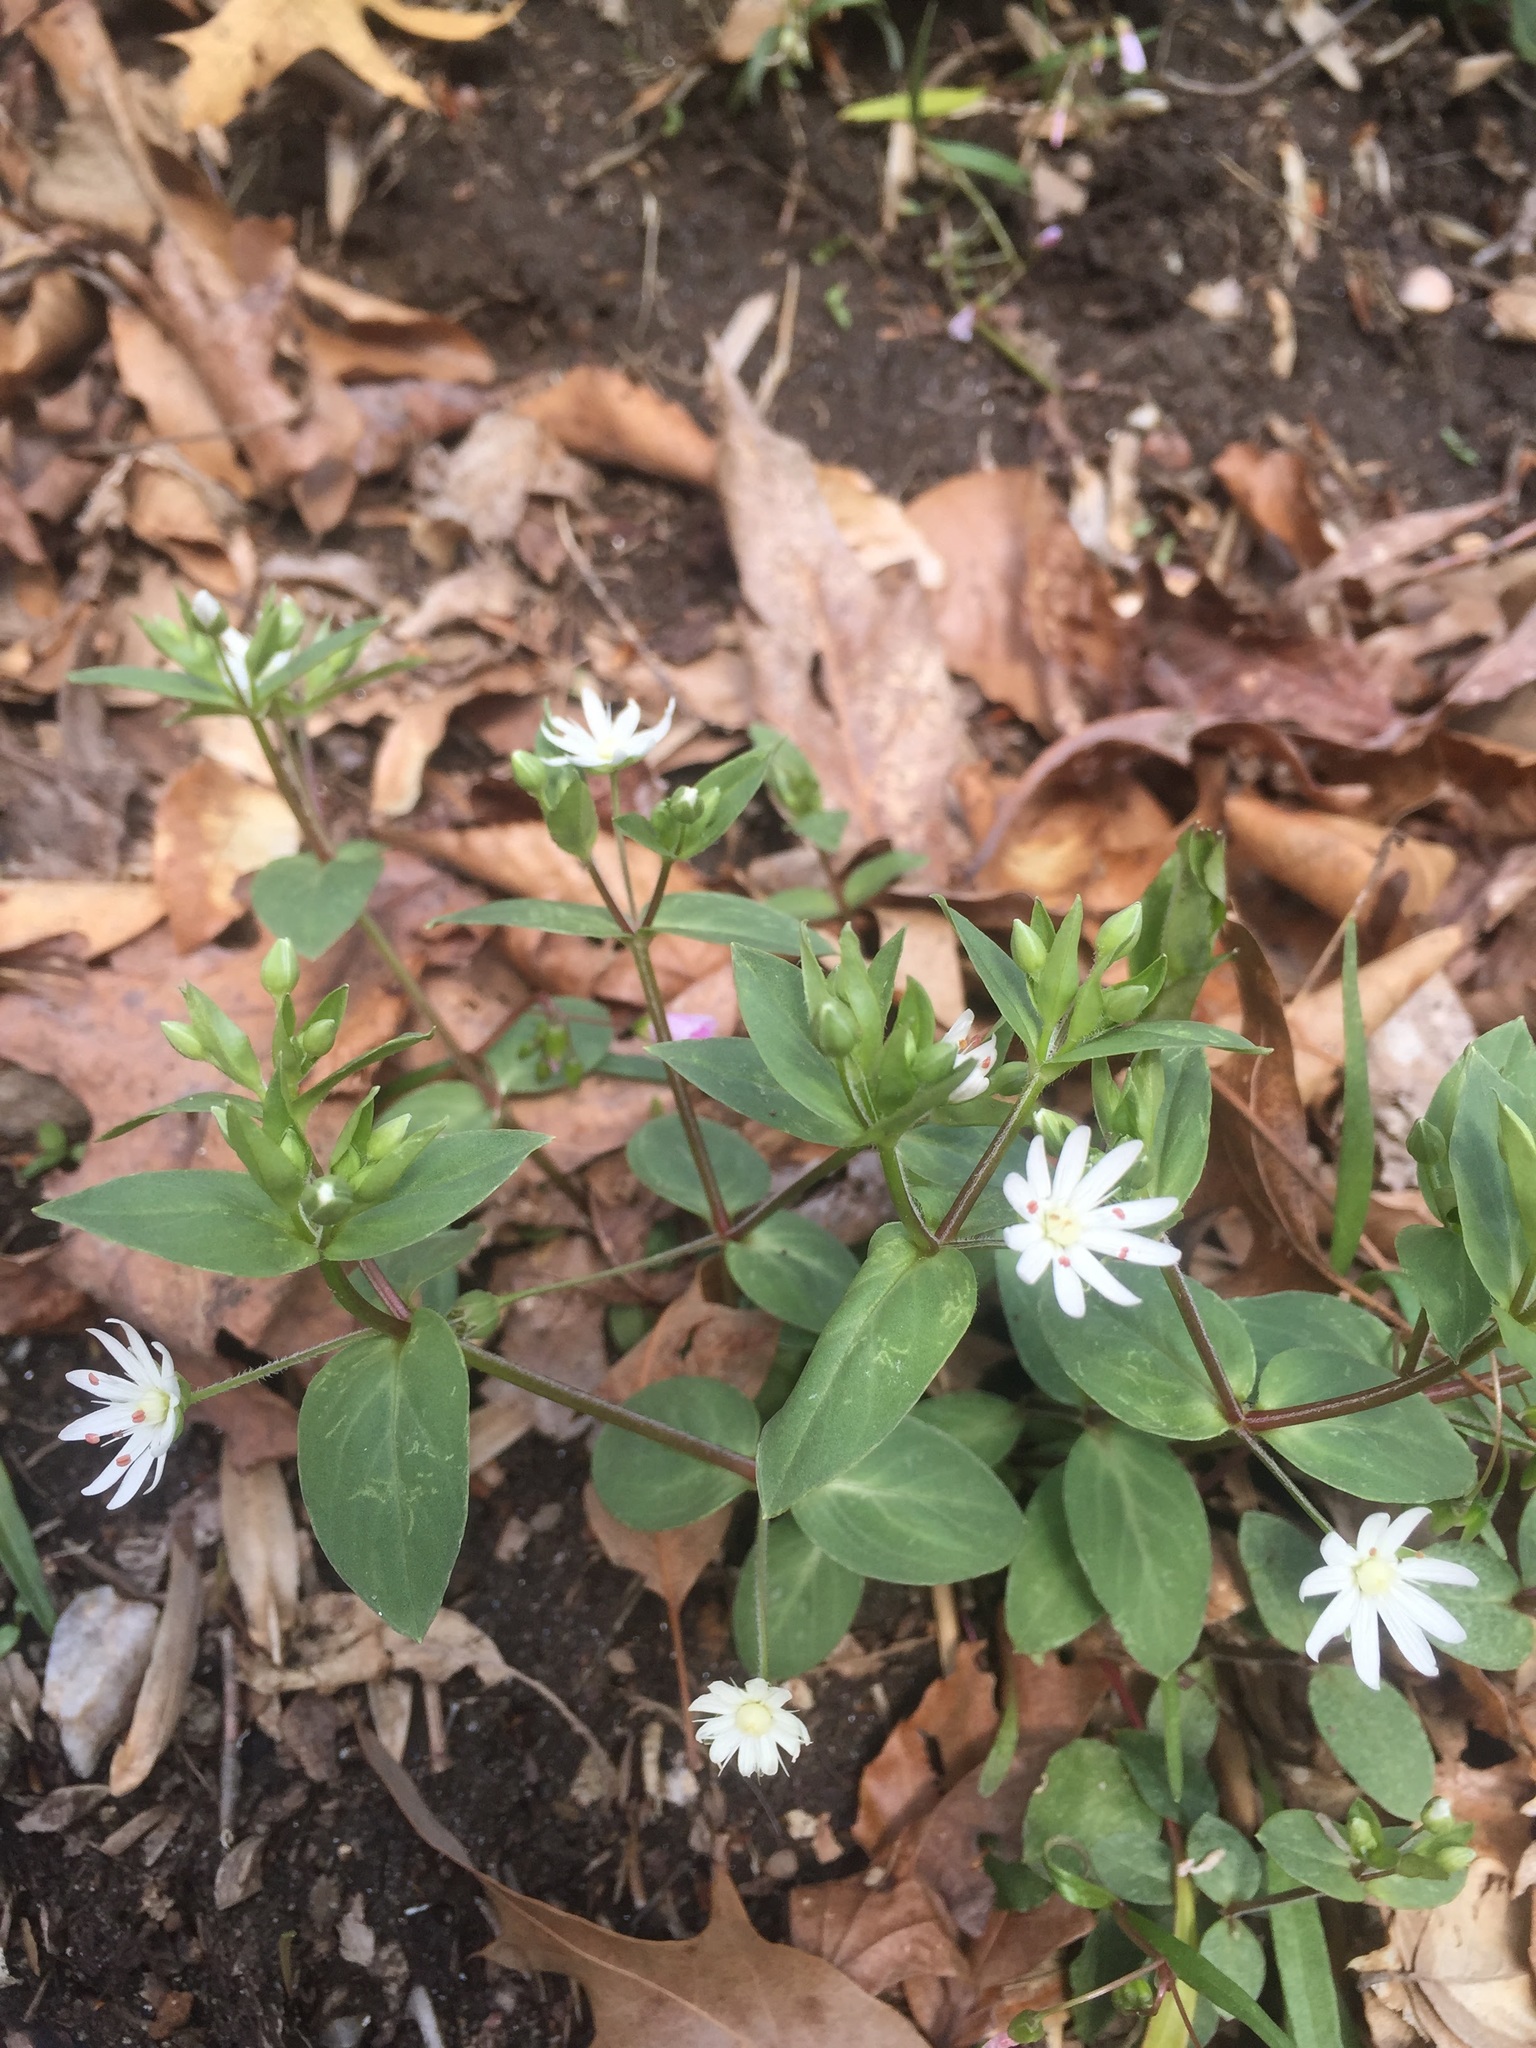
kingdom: Plantae
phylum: Tracheophyta
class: Magnoliopsida
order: Caryophyllales
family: Caryophyllaceae
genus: Stellaria
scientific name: Stellaria pubera
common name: Star chickweed
